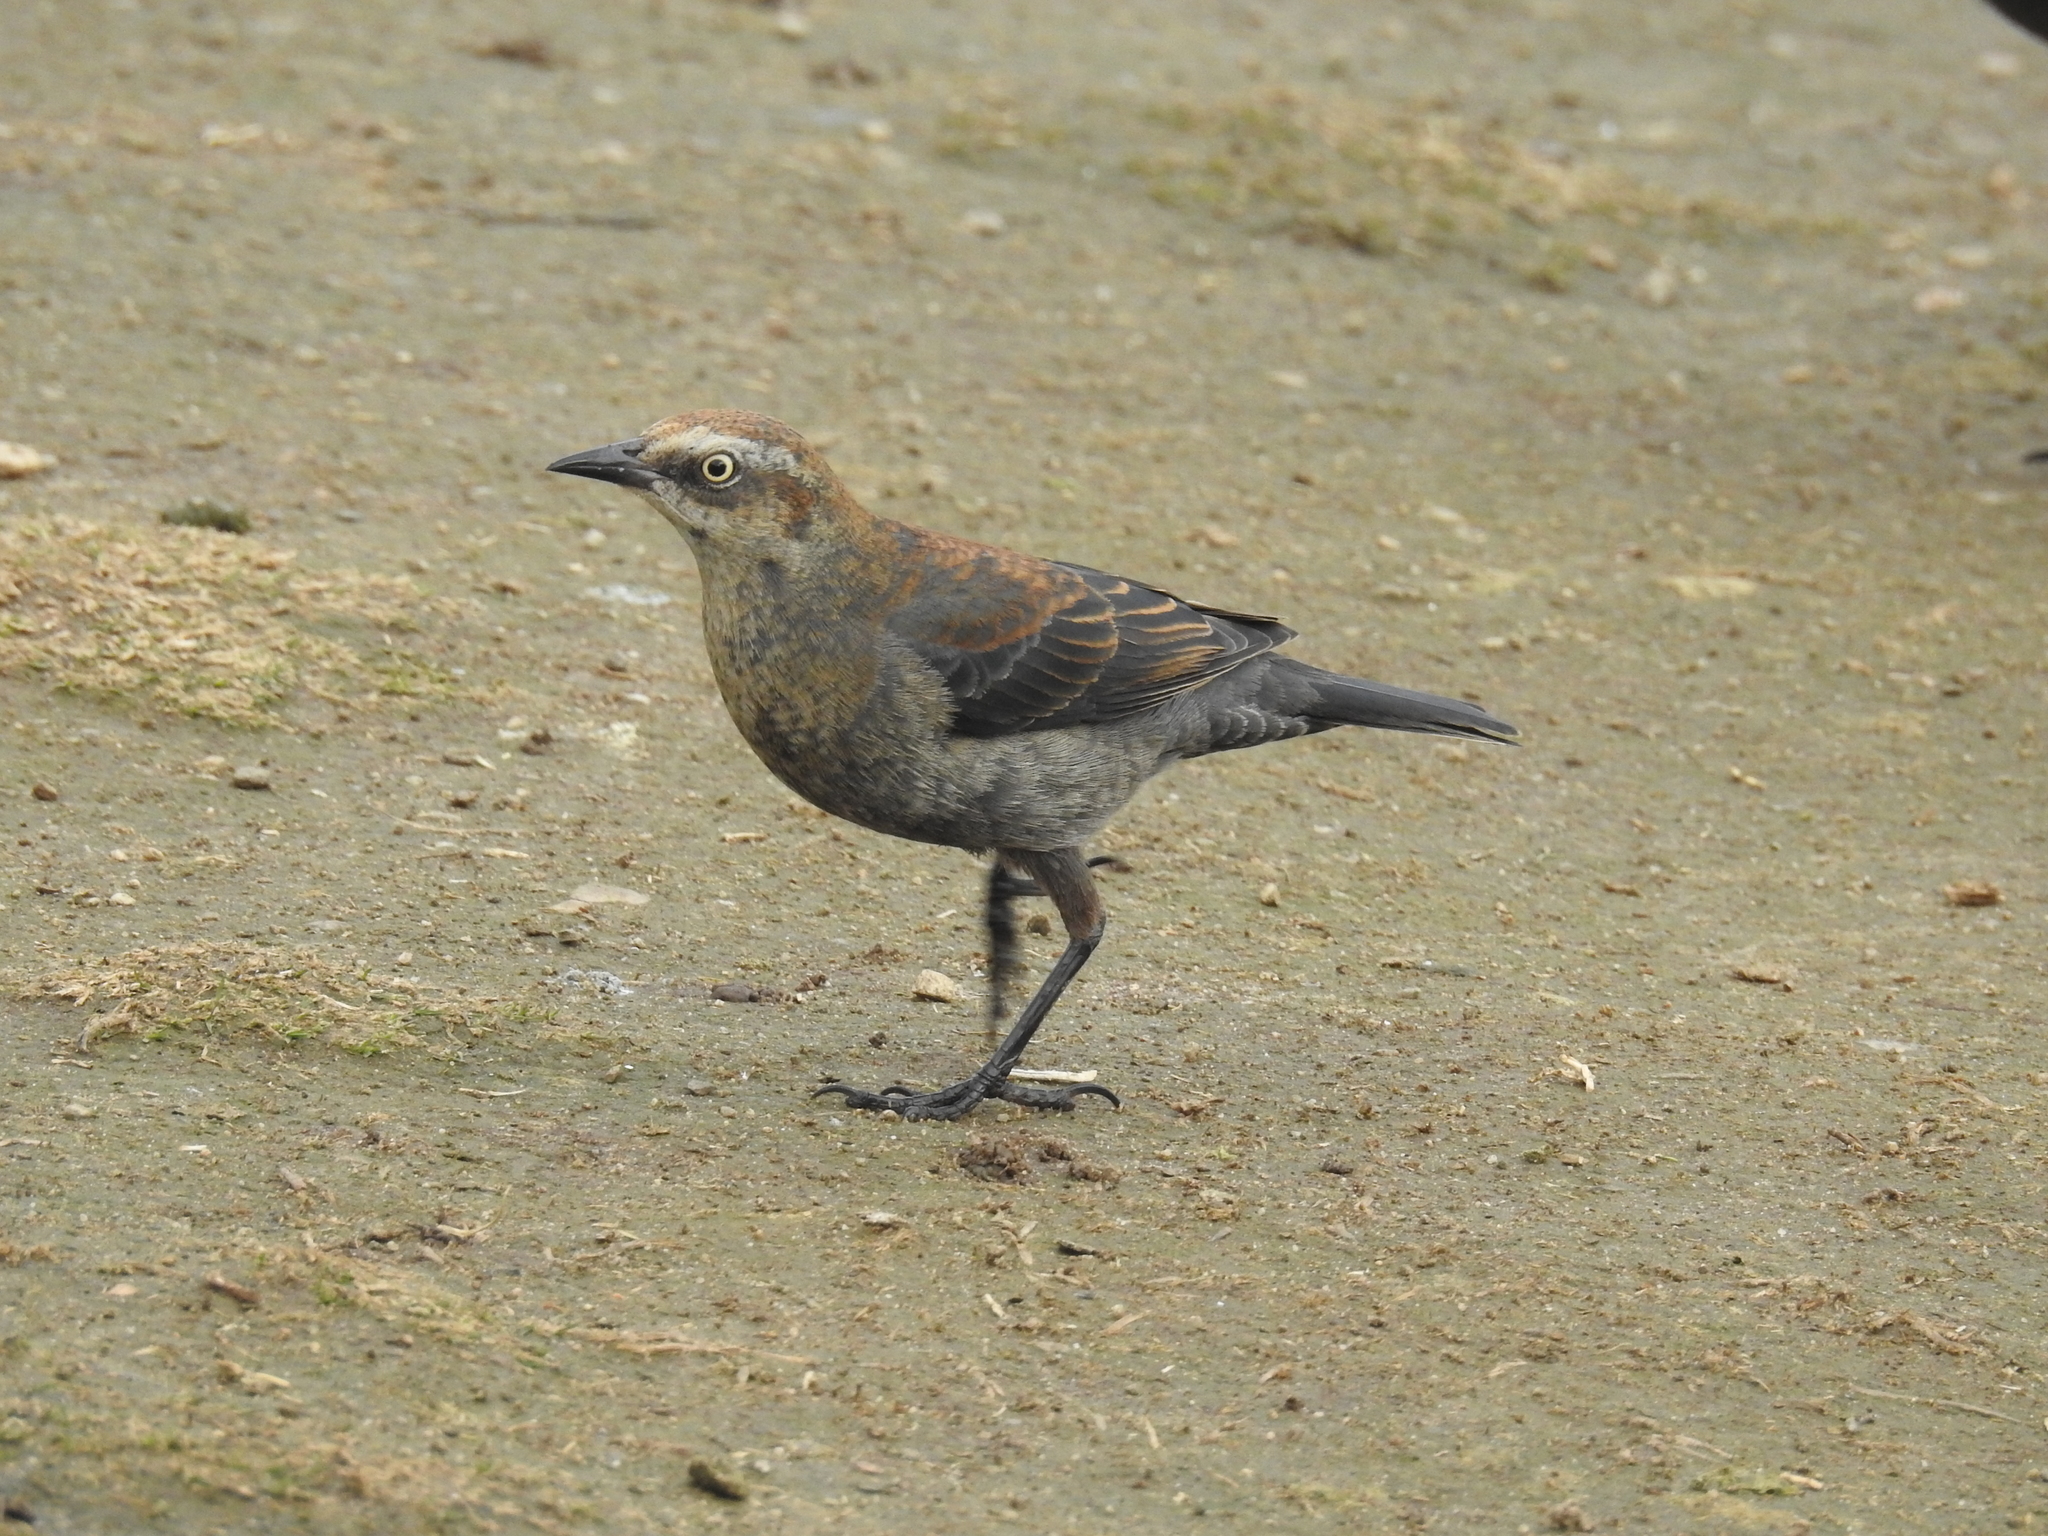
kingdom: Animalia
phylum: Chordata
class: Aves
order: Passeriformes
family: Icteridae
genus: Euphagus
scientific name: Euphagus carolinus
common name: Rusty blackbird
